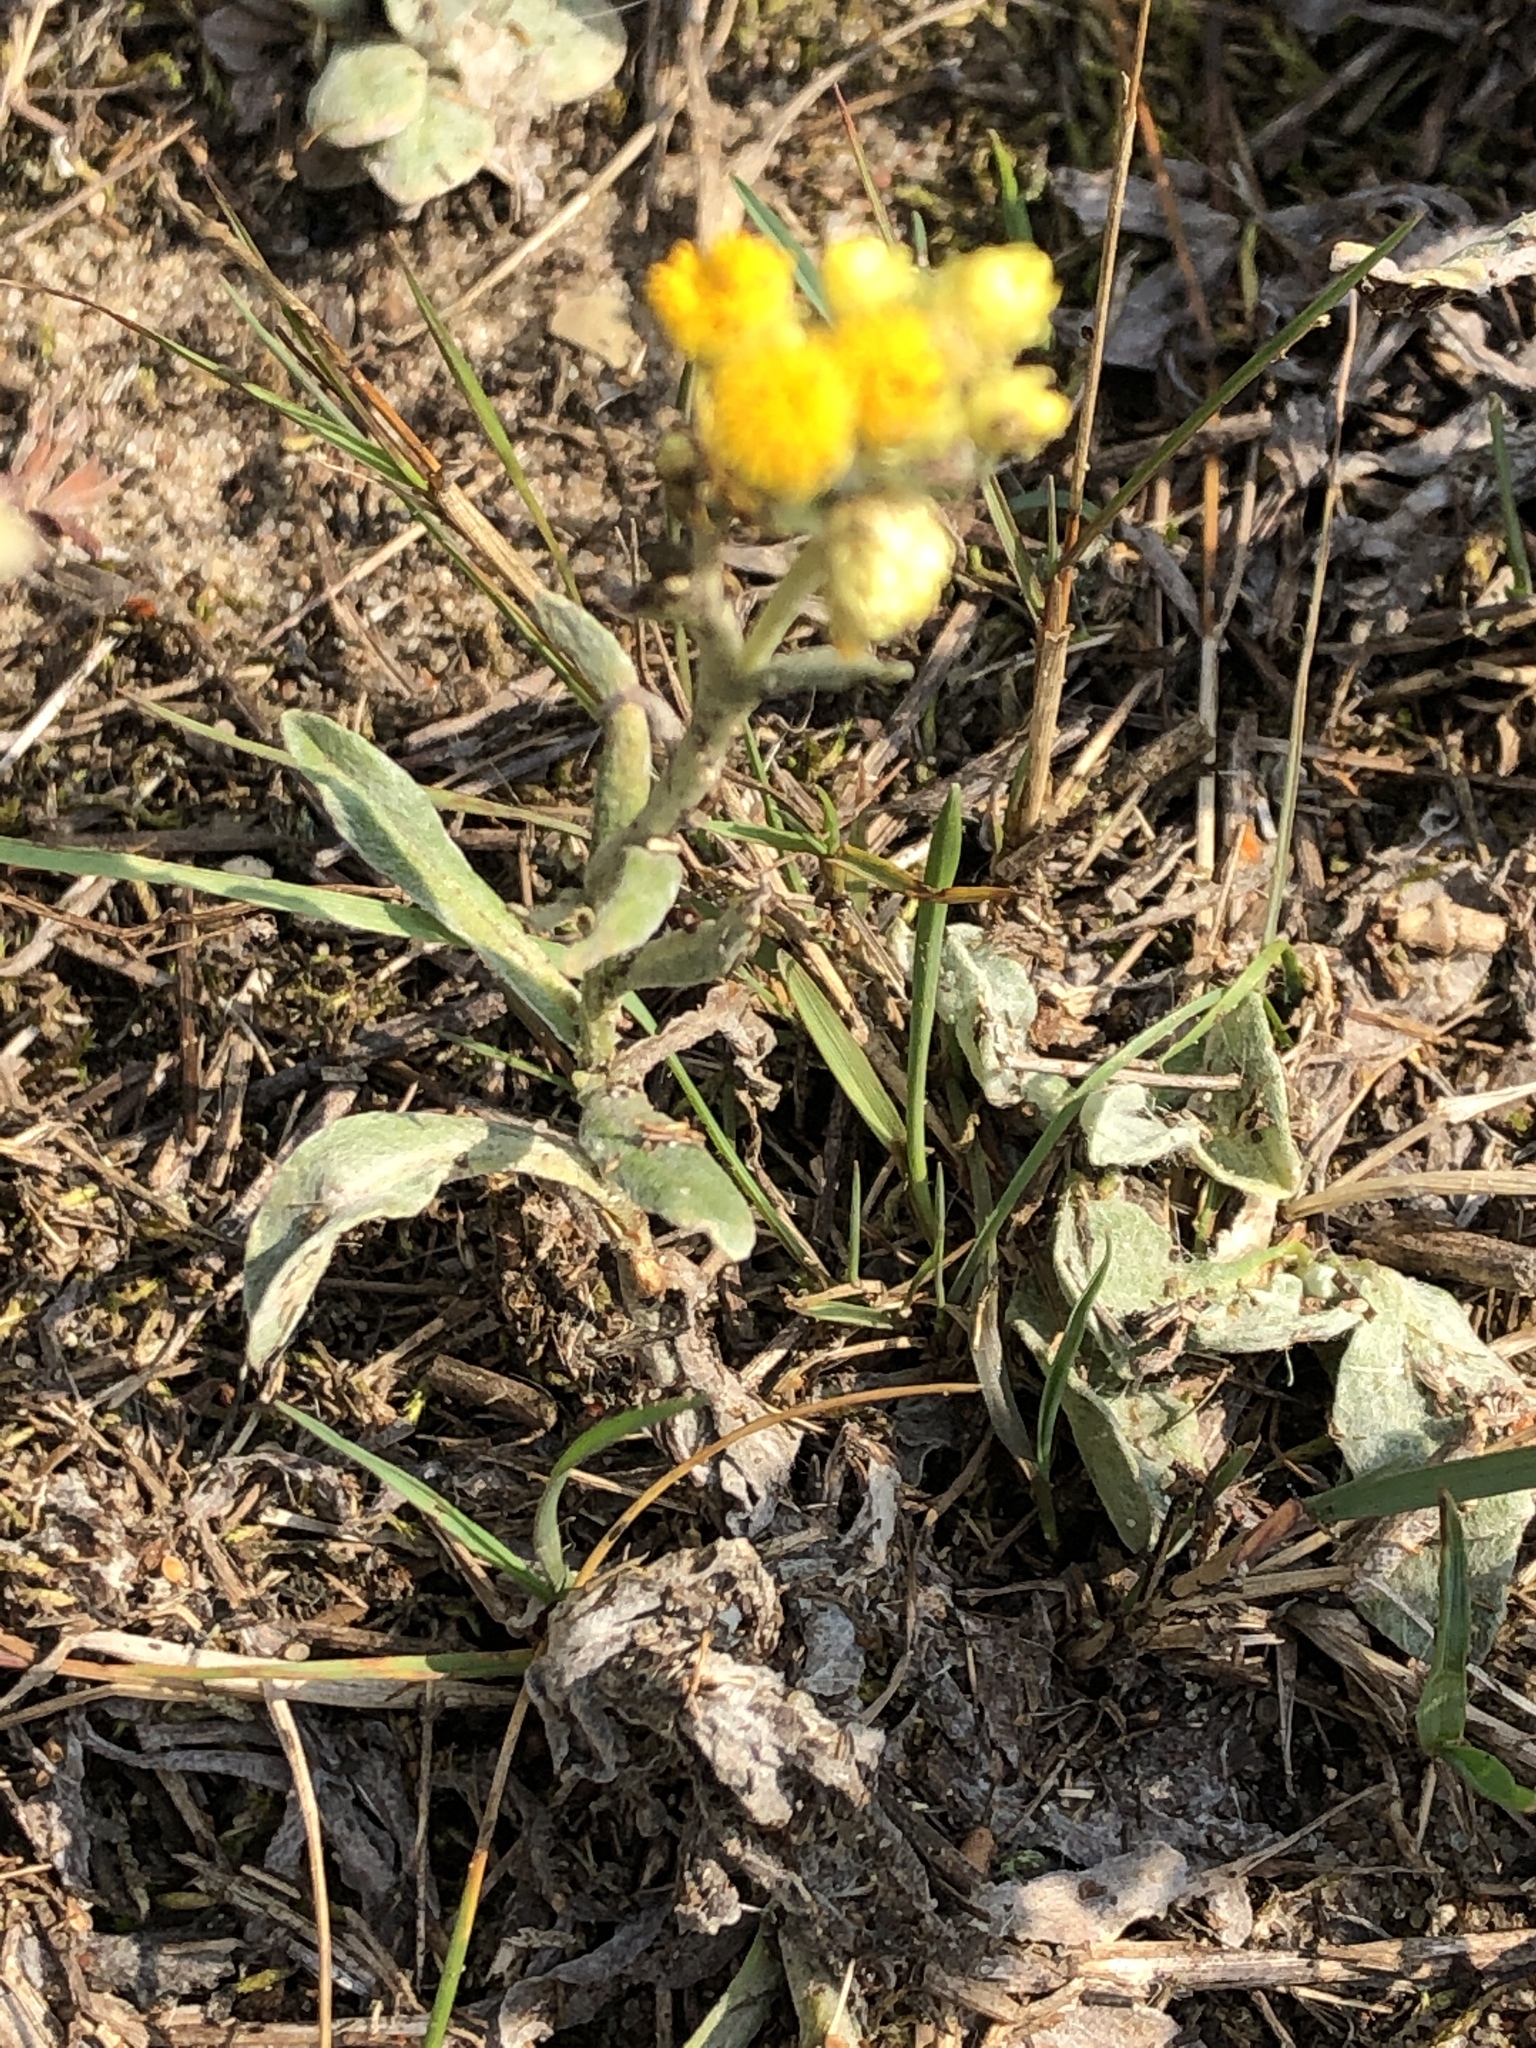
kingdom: Plantae
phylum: Tracheophyta
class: Magnoliopsida
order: Asterales
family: Asteraceae
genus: Helichrysum
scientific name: Helichrysum arenarium
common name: Strawflower
